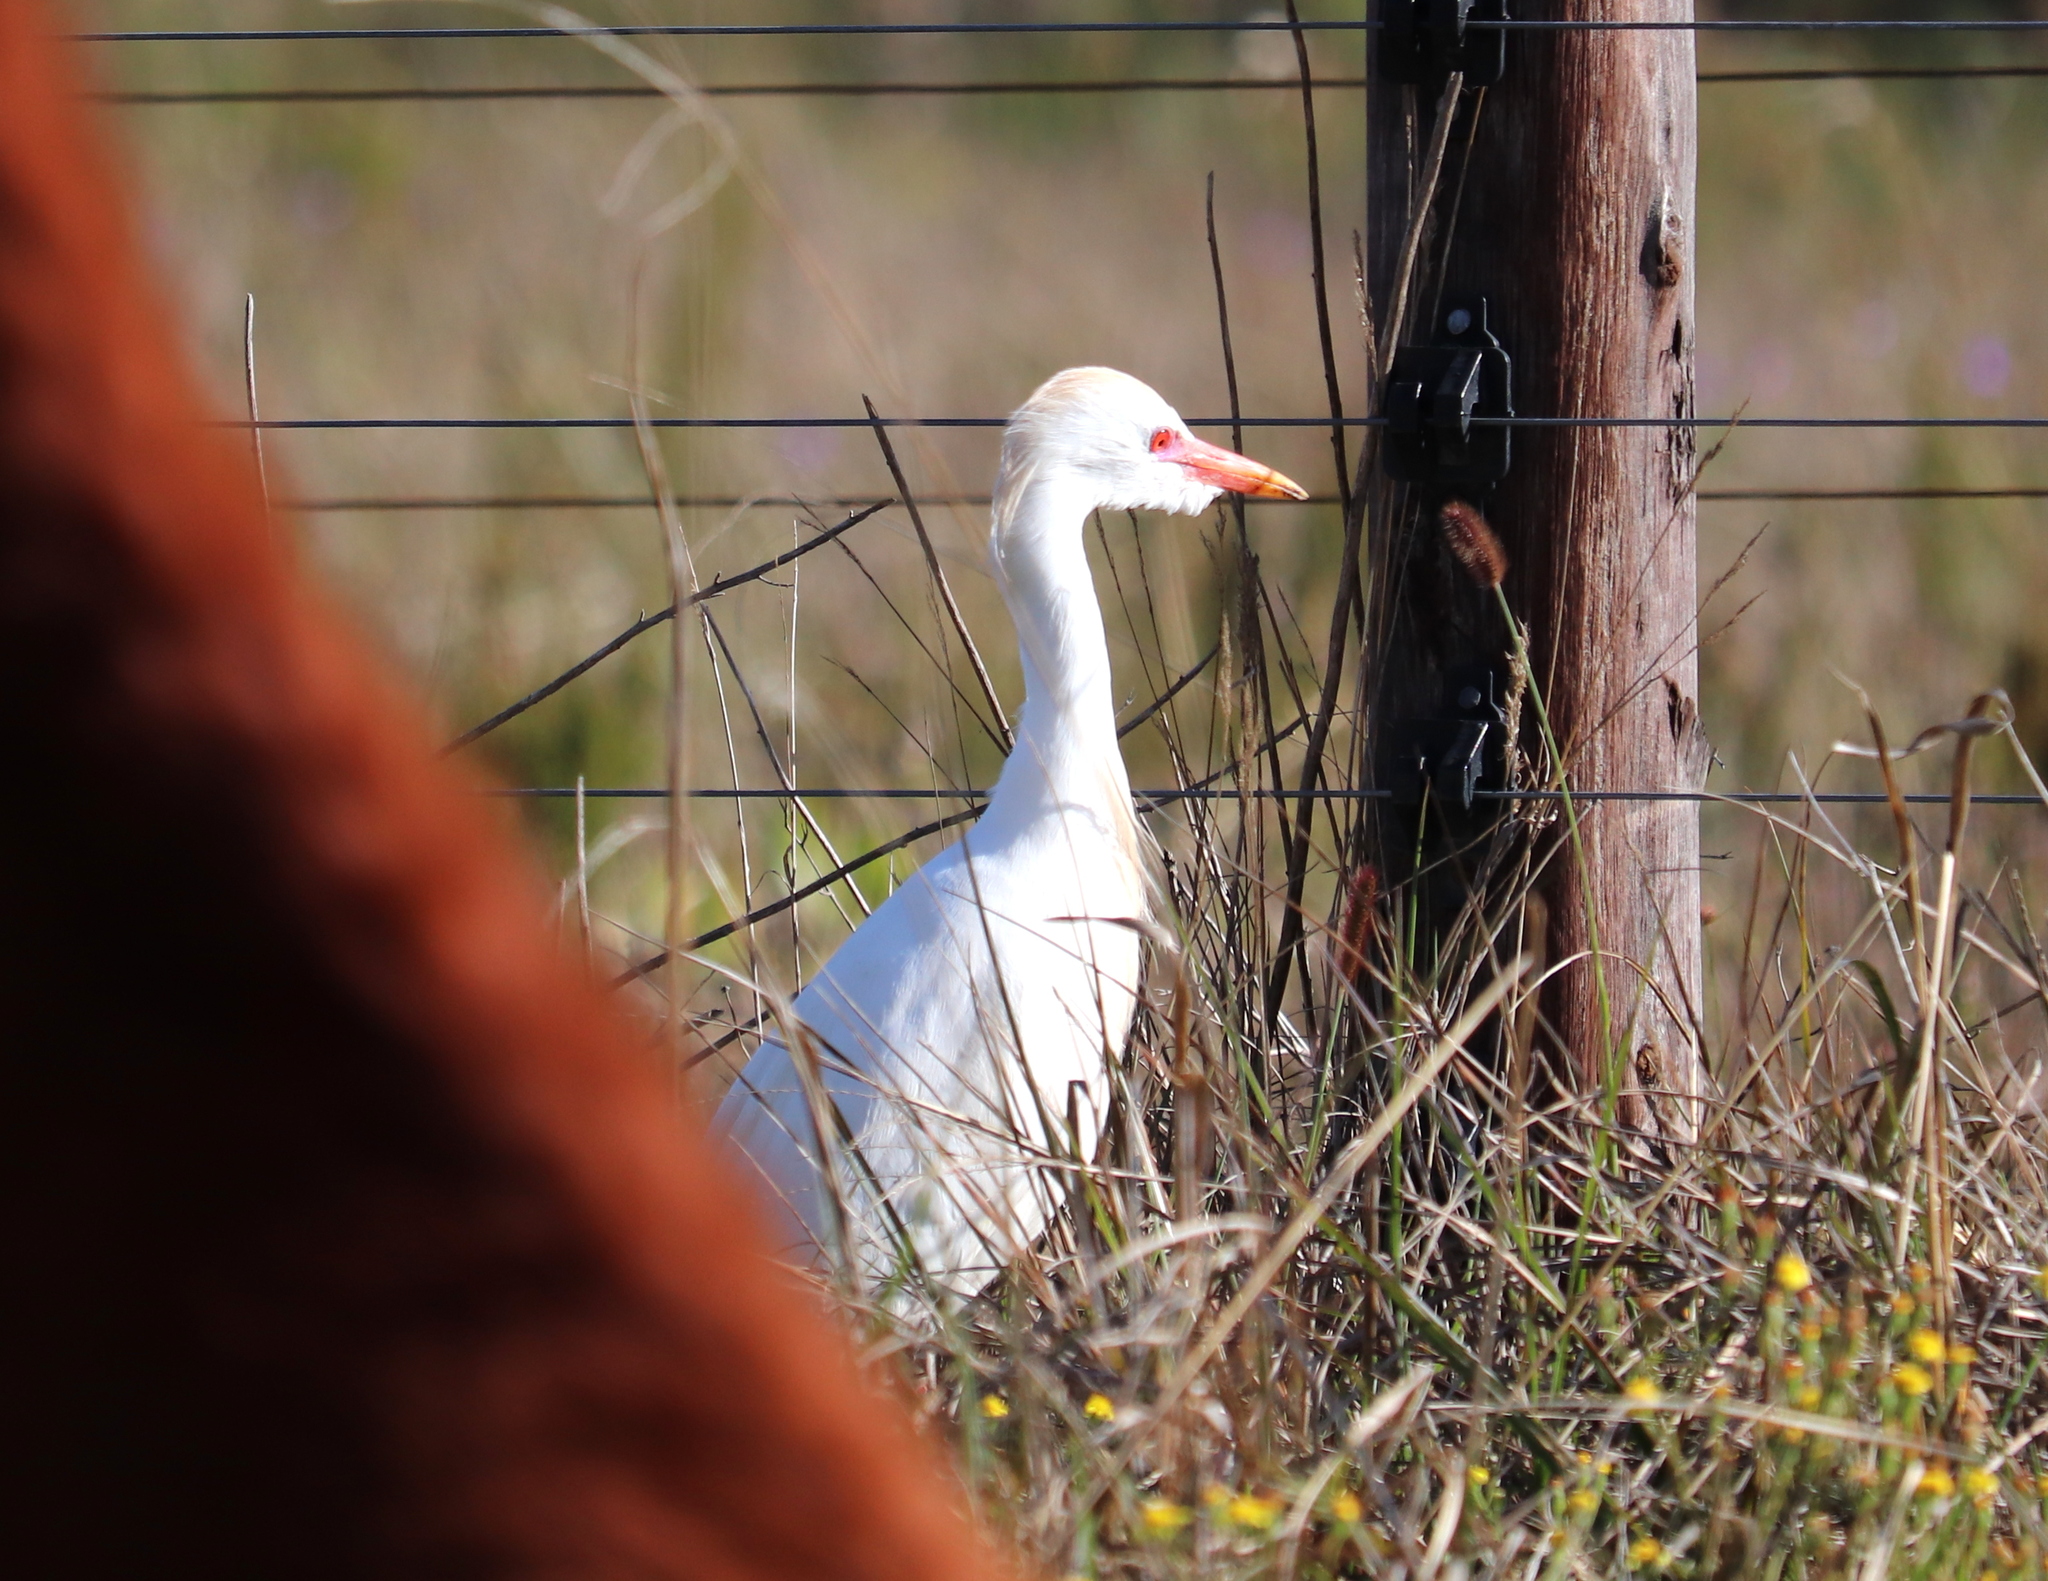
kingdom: Animalia
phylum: Chordata
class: Aves
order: Pelecaniformes
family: Ardeidae
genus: Bubulcus
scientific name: Bubulcus ibis
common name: Cattle egret
